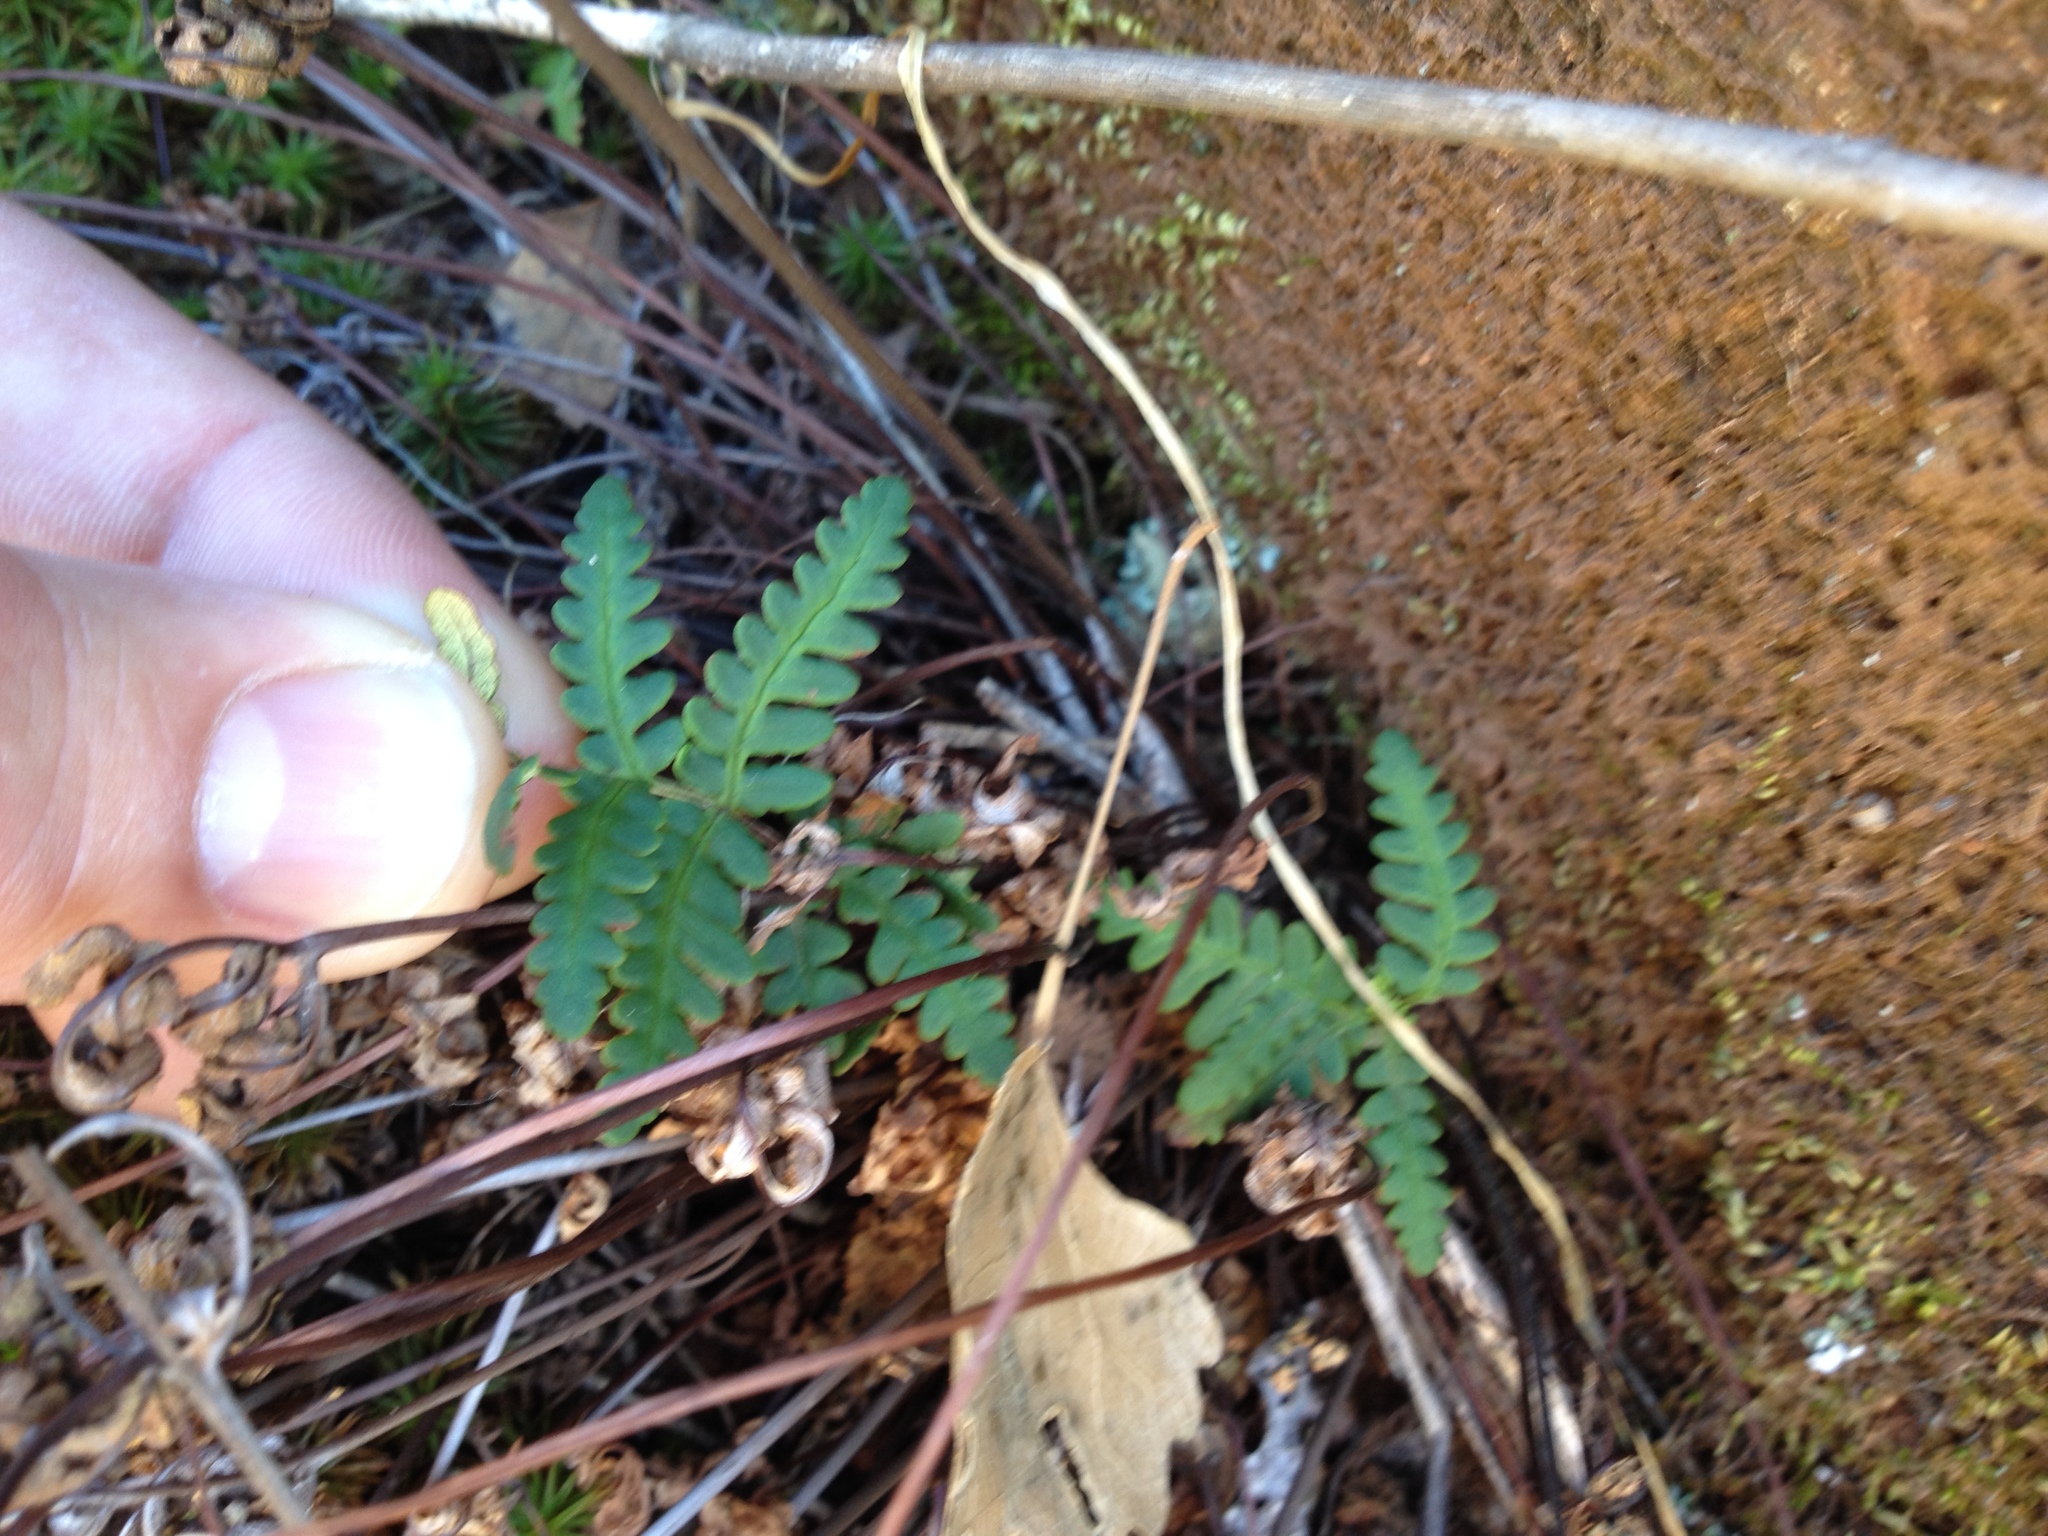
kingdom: Plantae
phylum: Tracheophyta
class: Polypodiopsida
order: Polypodiales
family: Pteridaceae
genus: Pentagramma
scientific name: Pentagramma triangularis
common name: Gold fern
